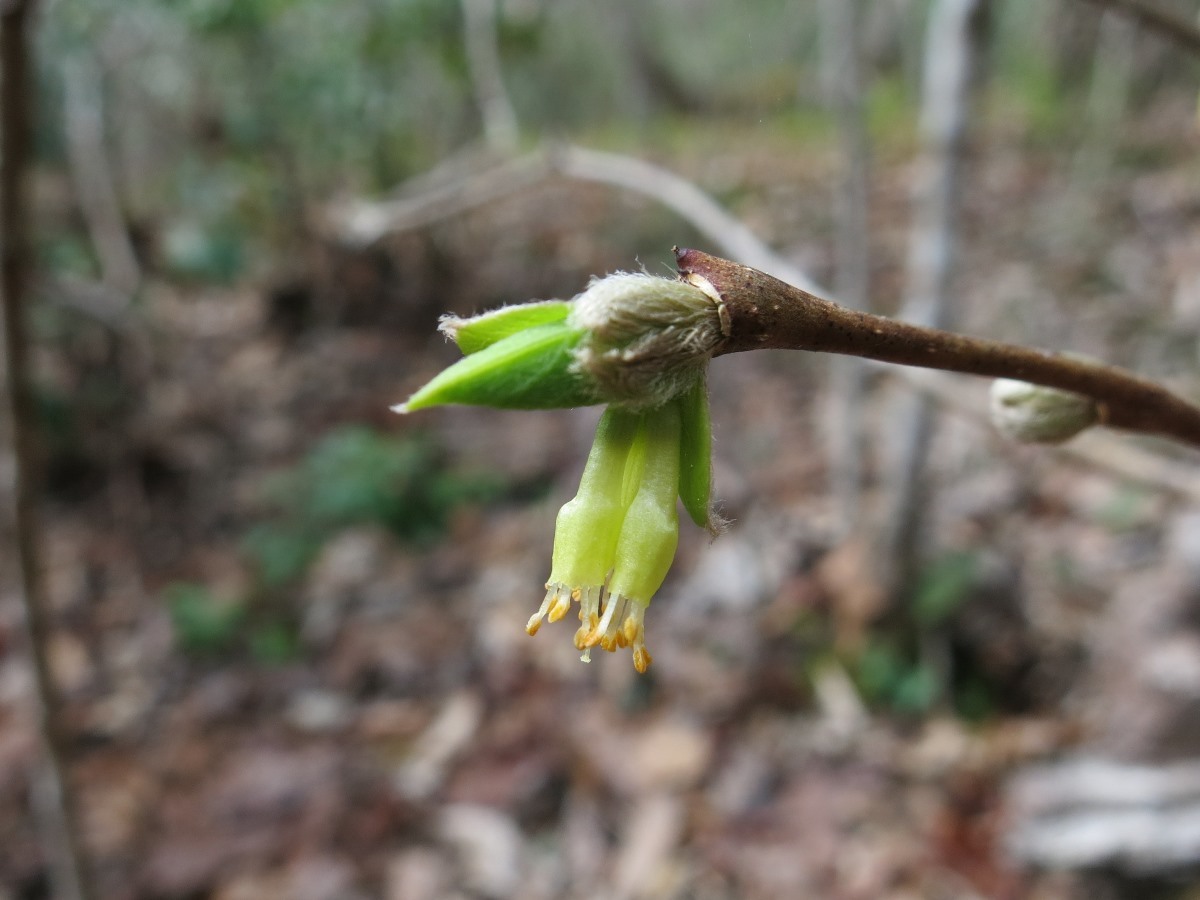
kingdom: Plantae
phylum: Tracheophyta
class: Magnoliopsida
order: Malvales
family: Thymelaeaceae
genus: Dirca
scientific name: Dirca palustris
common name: Leatherwood
